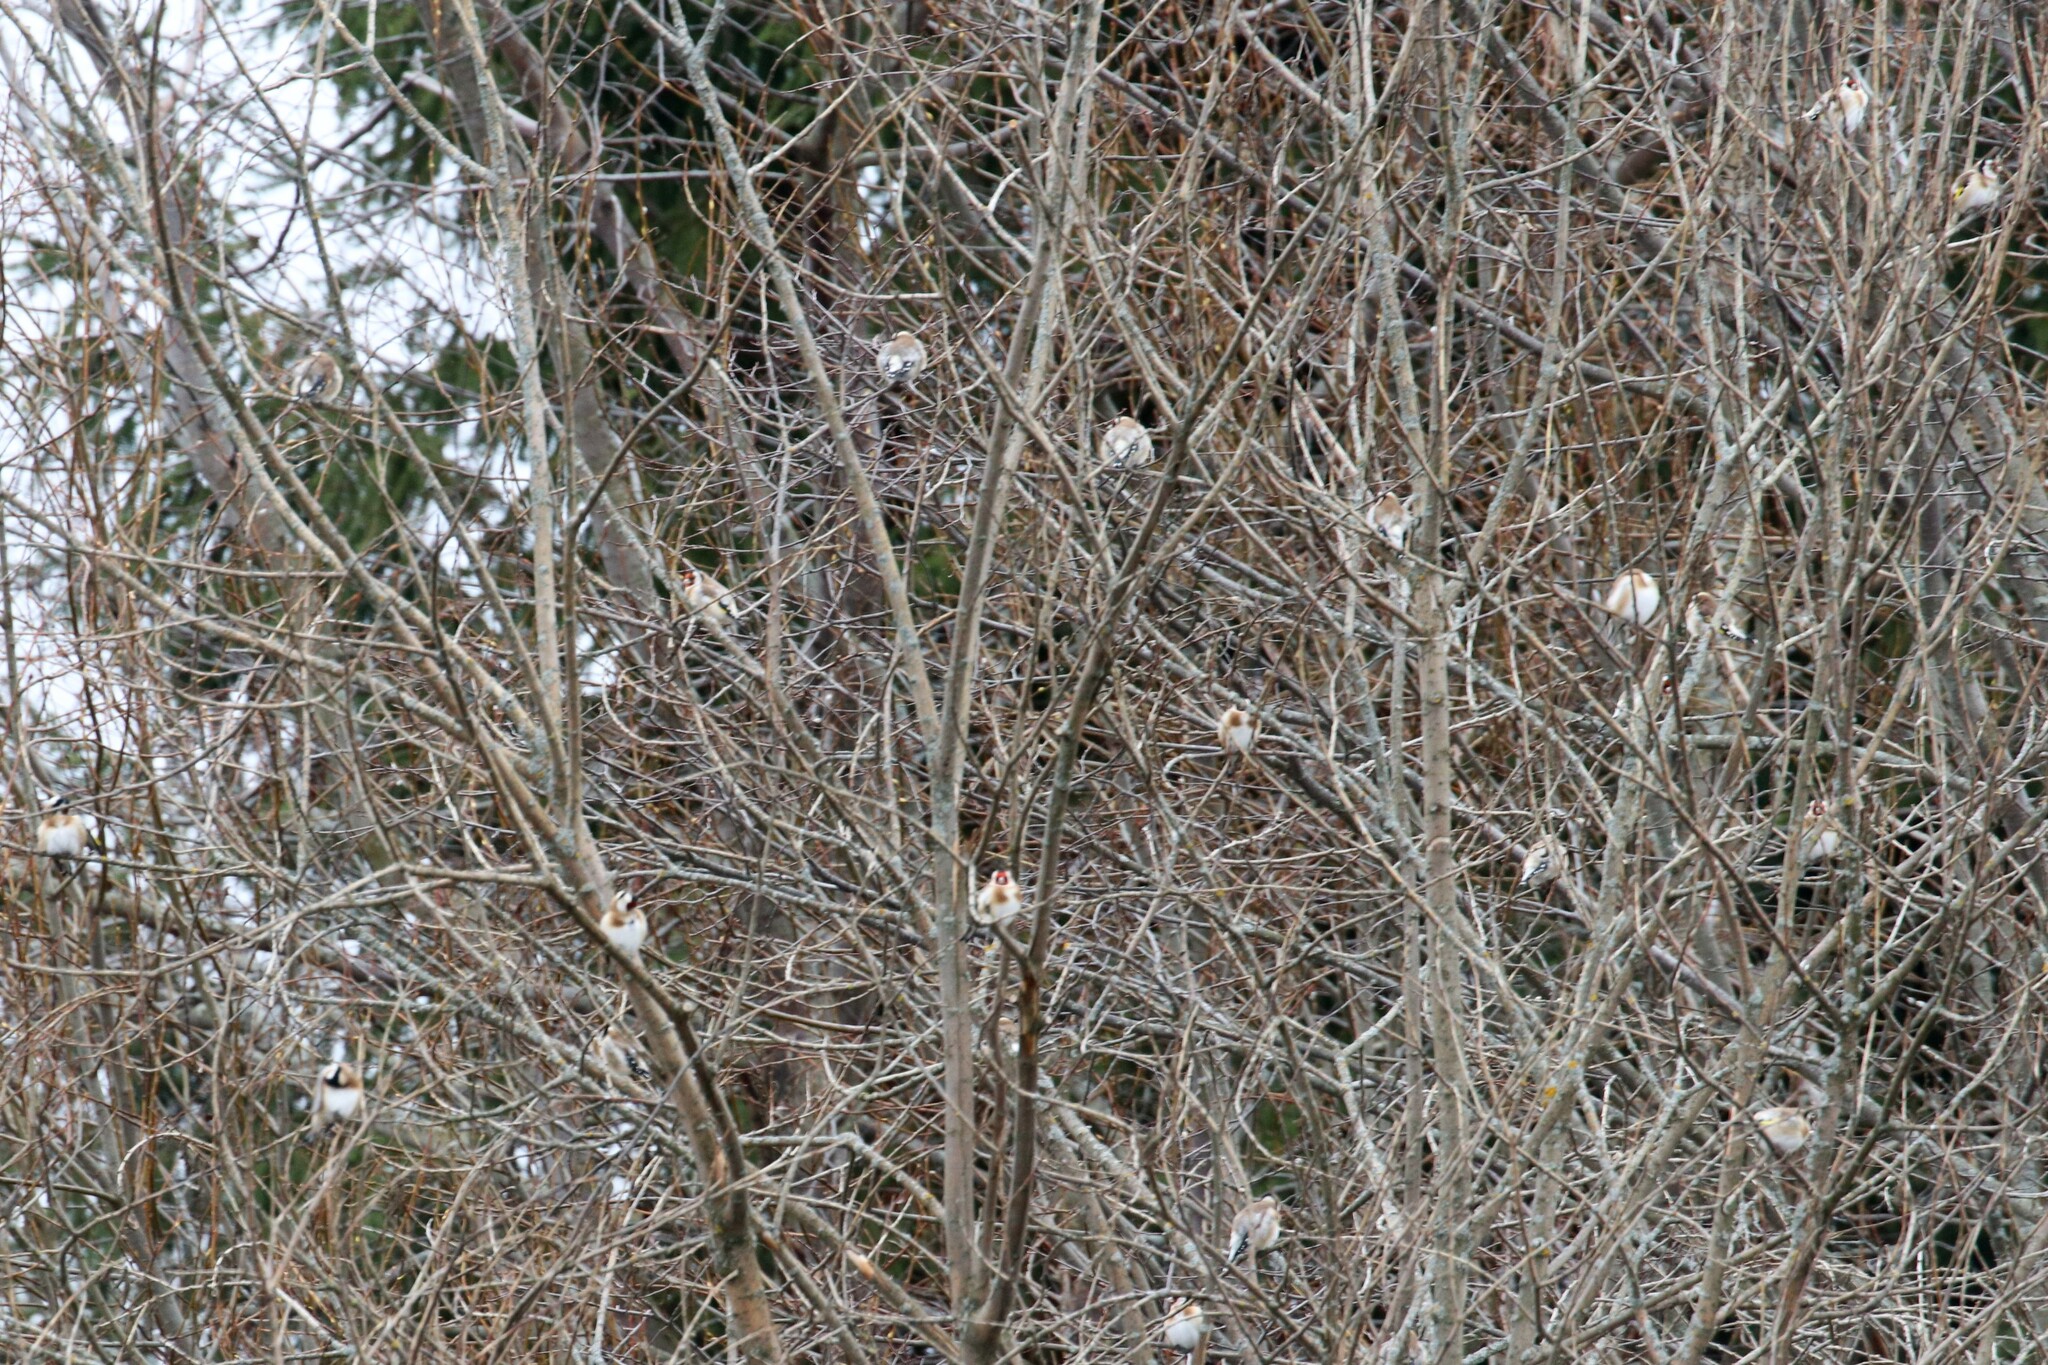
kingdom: Animalia
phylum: Chordata
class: Aves
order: Passeriformes
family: Fringillidae
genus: Carduelis
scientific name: Carduelis carduelis
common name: European goldfinch
